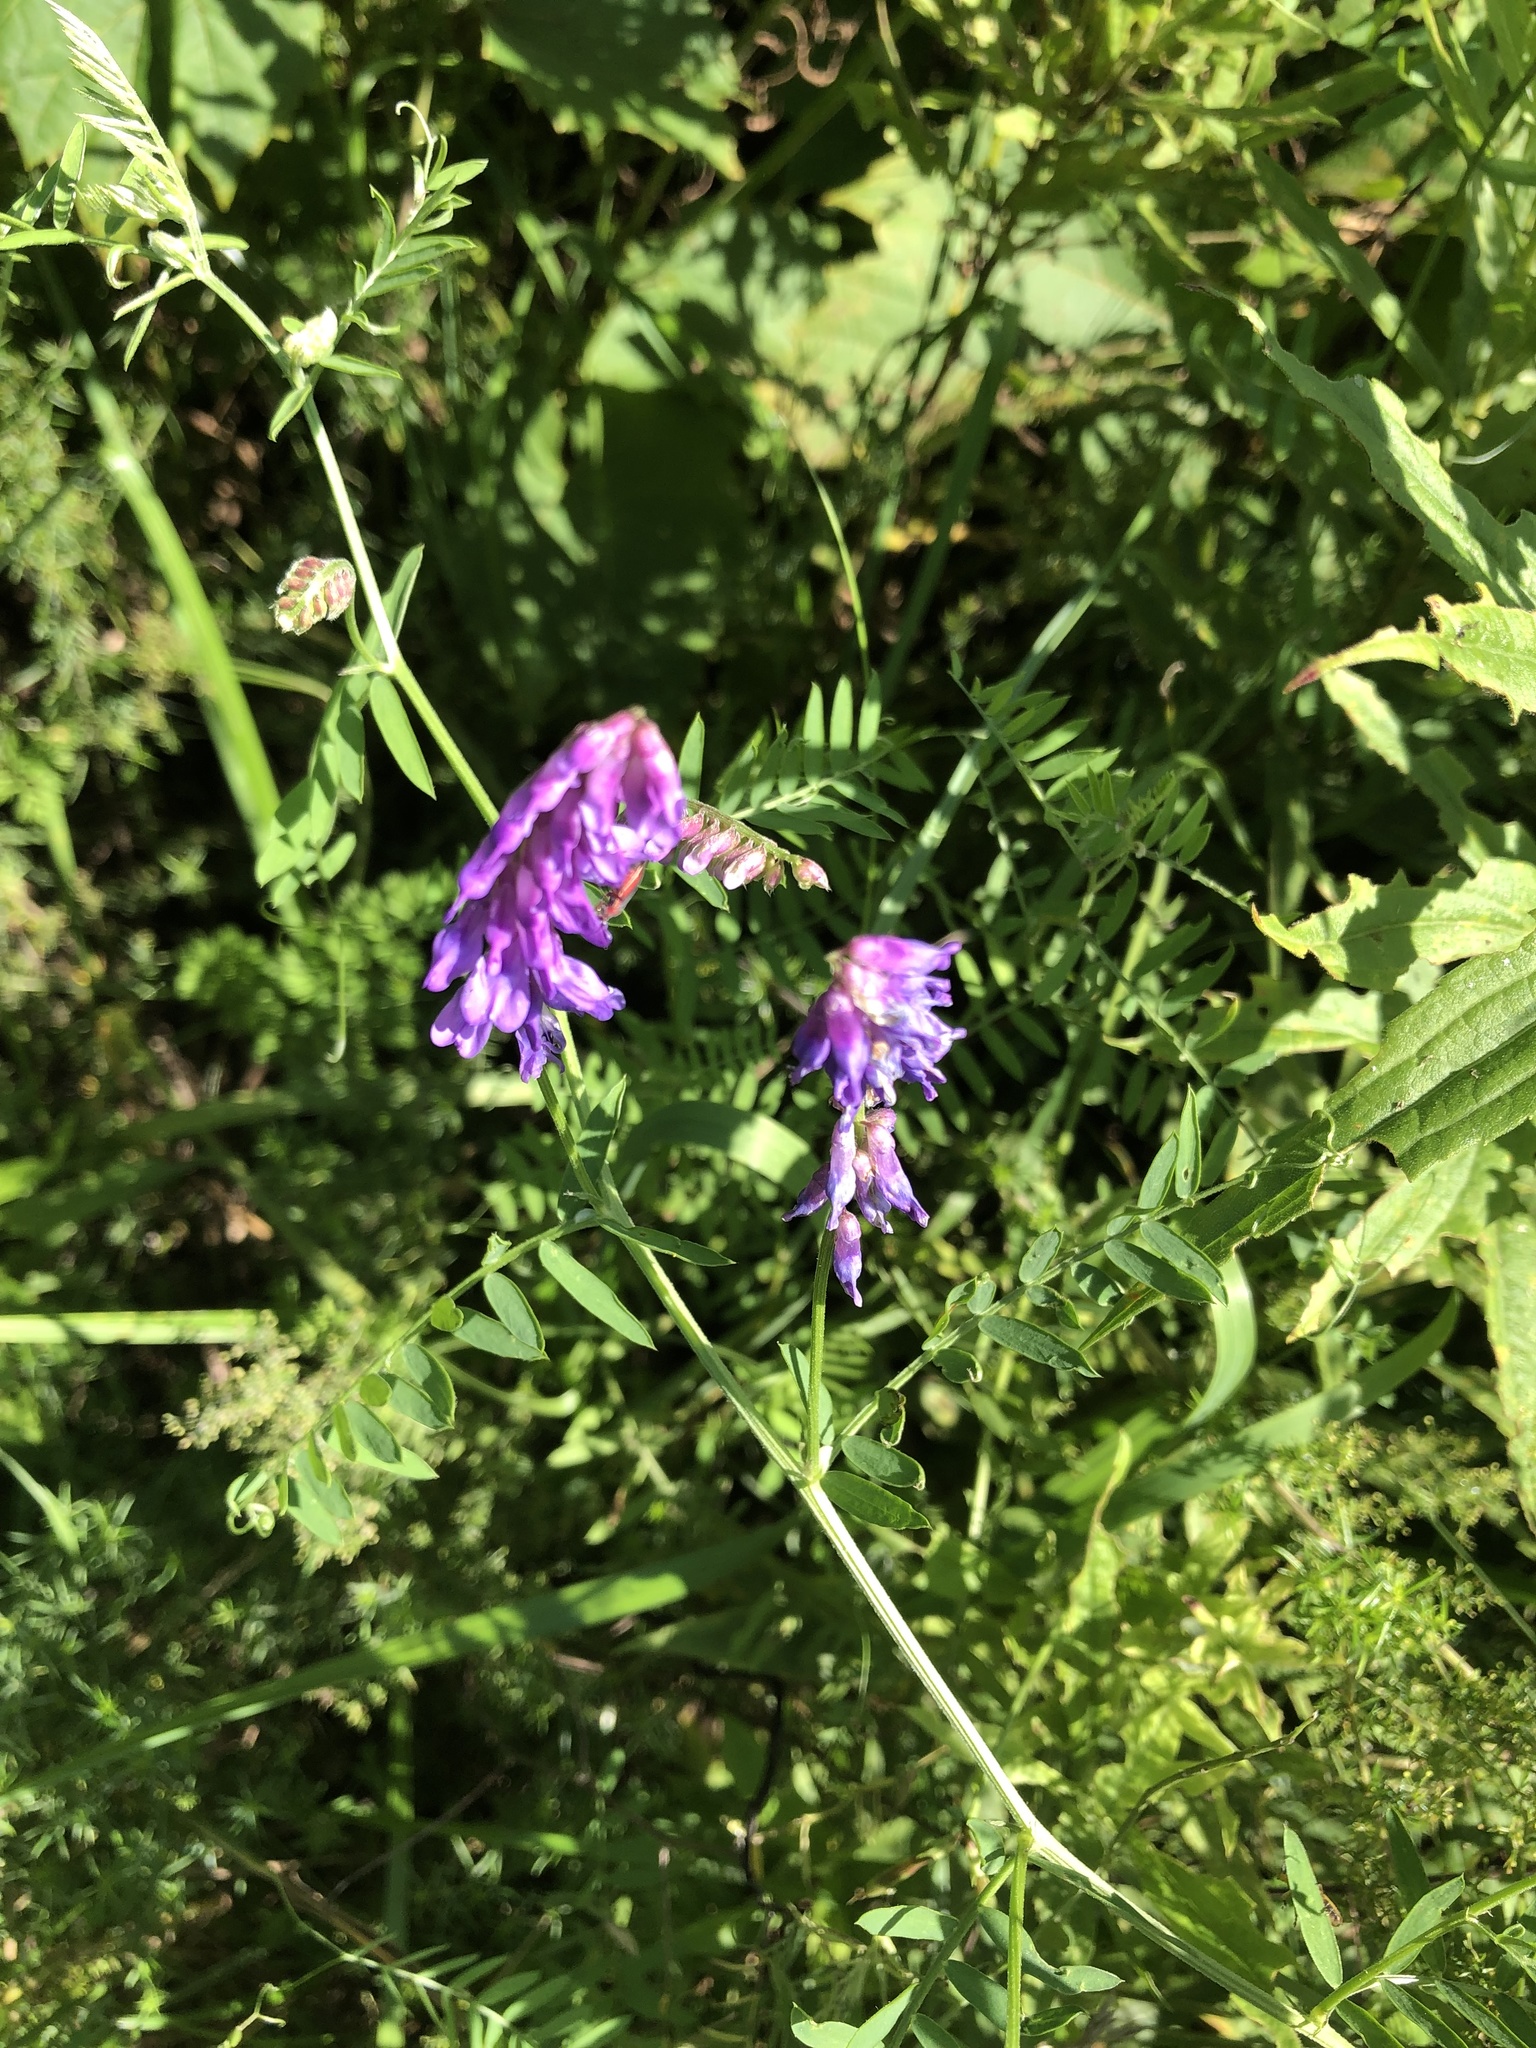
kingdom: Plantae
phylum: Tracheophyta
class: Magnoliopsida
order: Fabales
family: Fabaceae
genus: Vicia
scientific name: Vicia cracca
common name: Bird vetch
